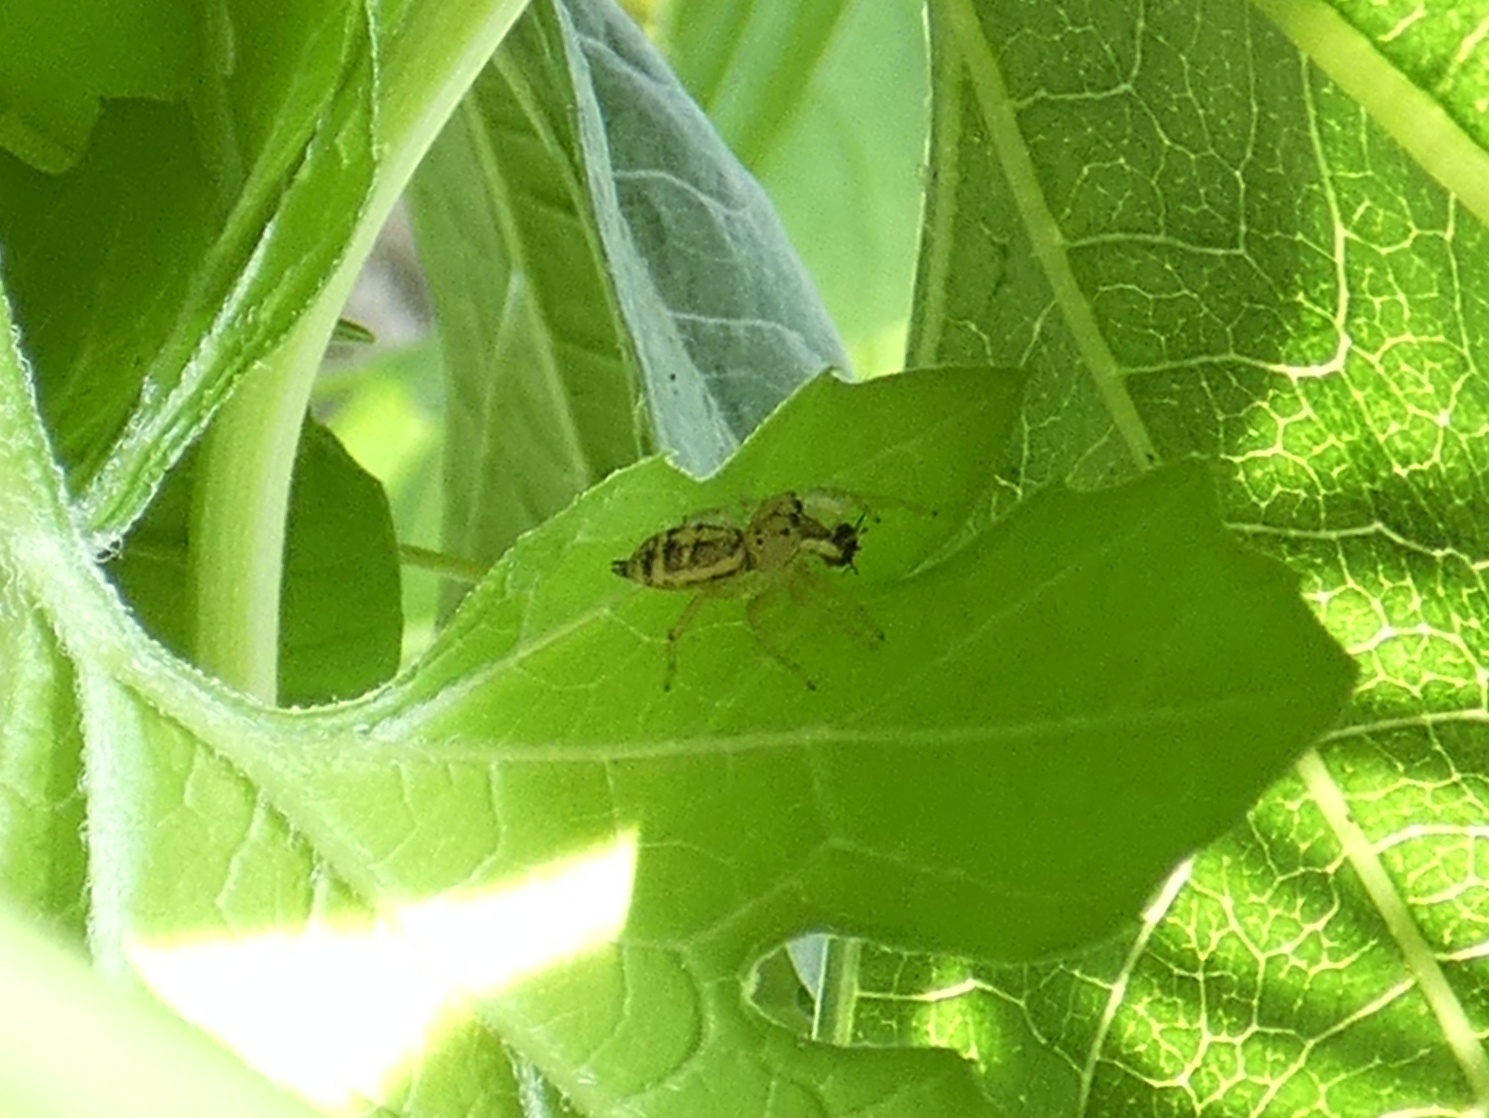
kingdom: Animalia
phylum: Arthropoda
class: Arachnida
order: Araneae
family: Salticidae
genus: Cosmophasis
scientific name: Cosmophasis lami
